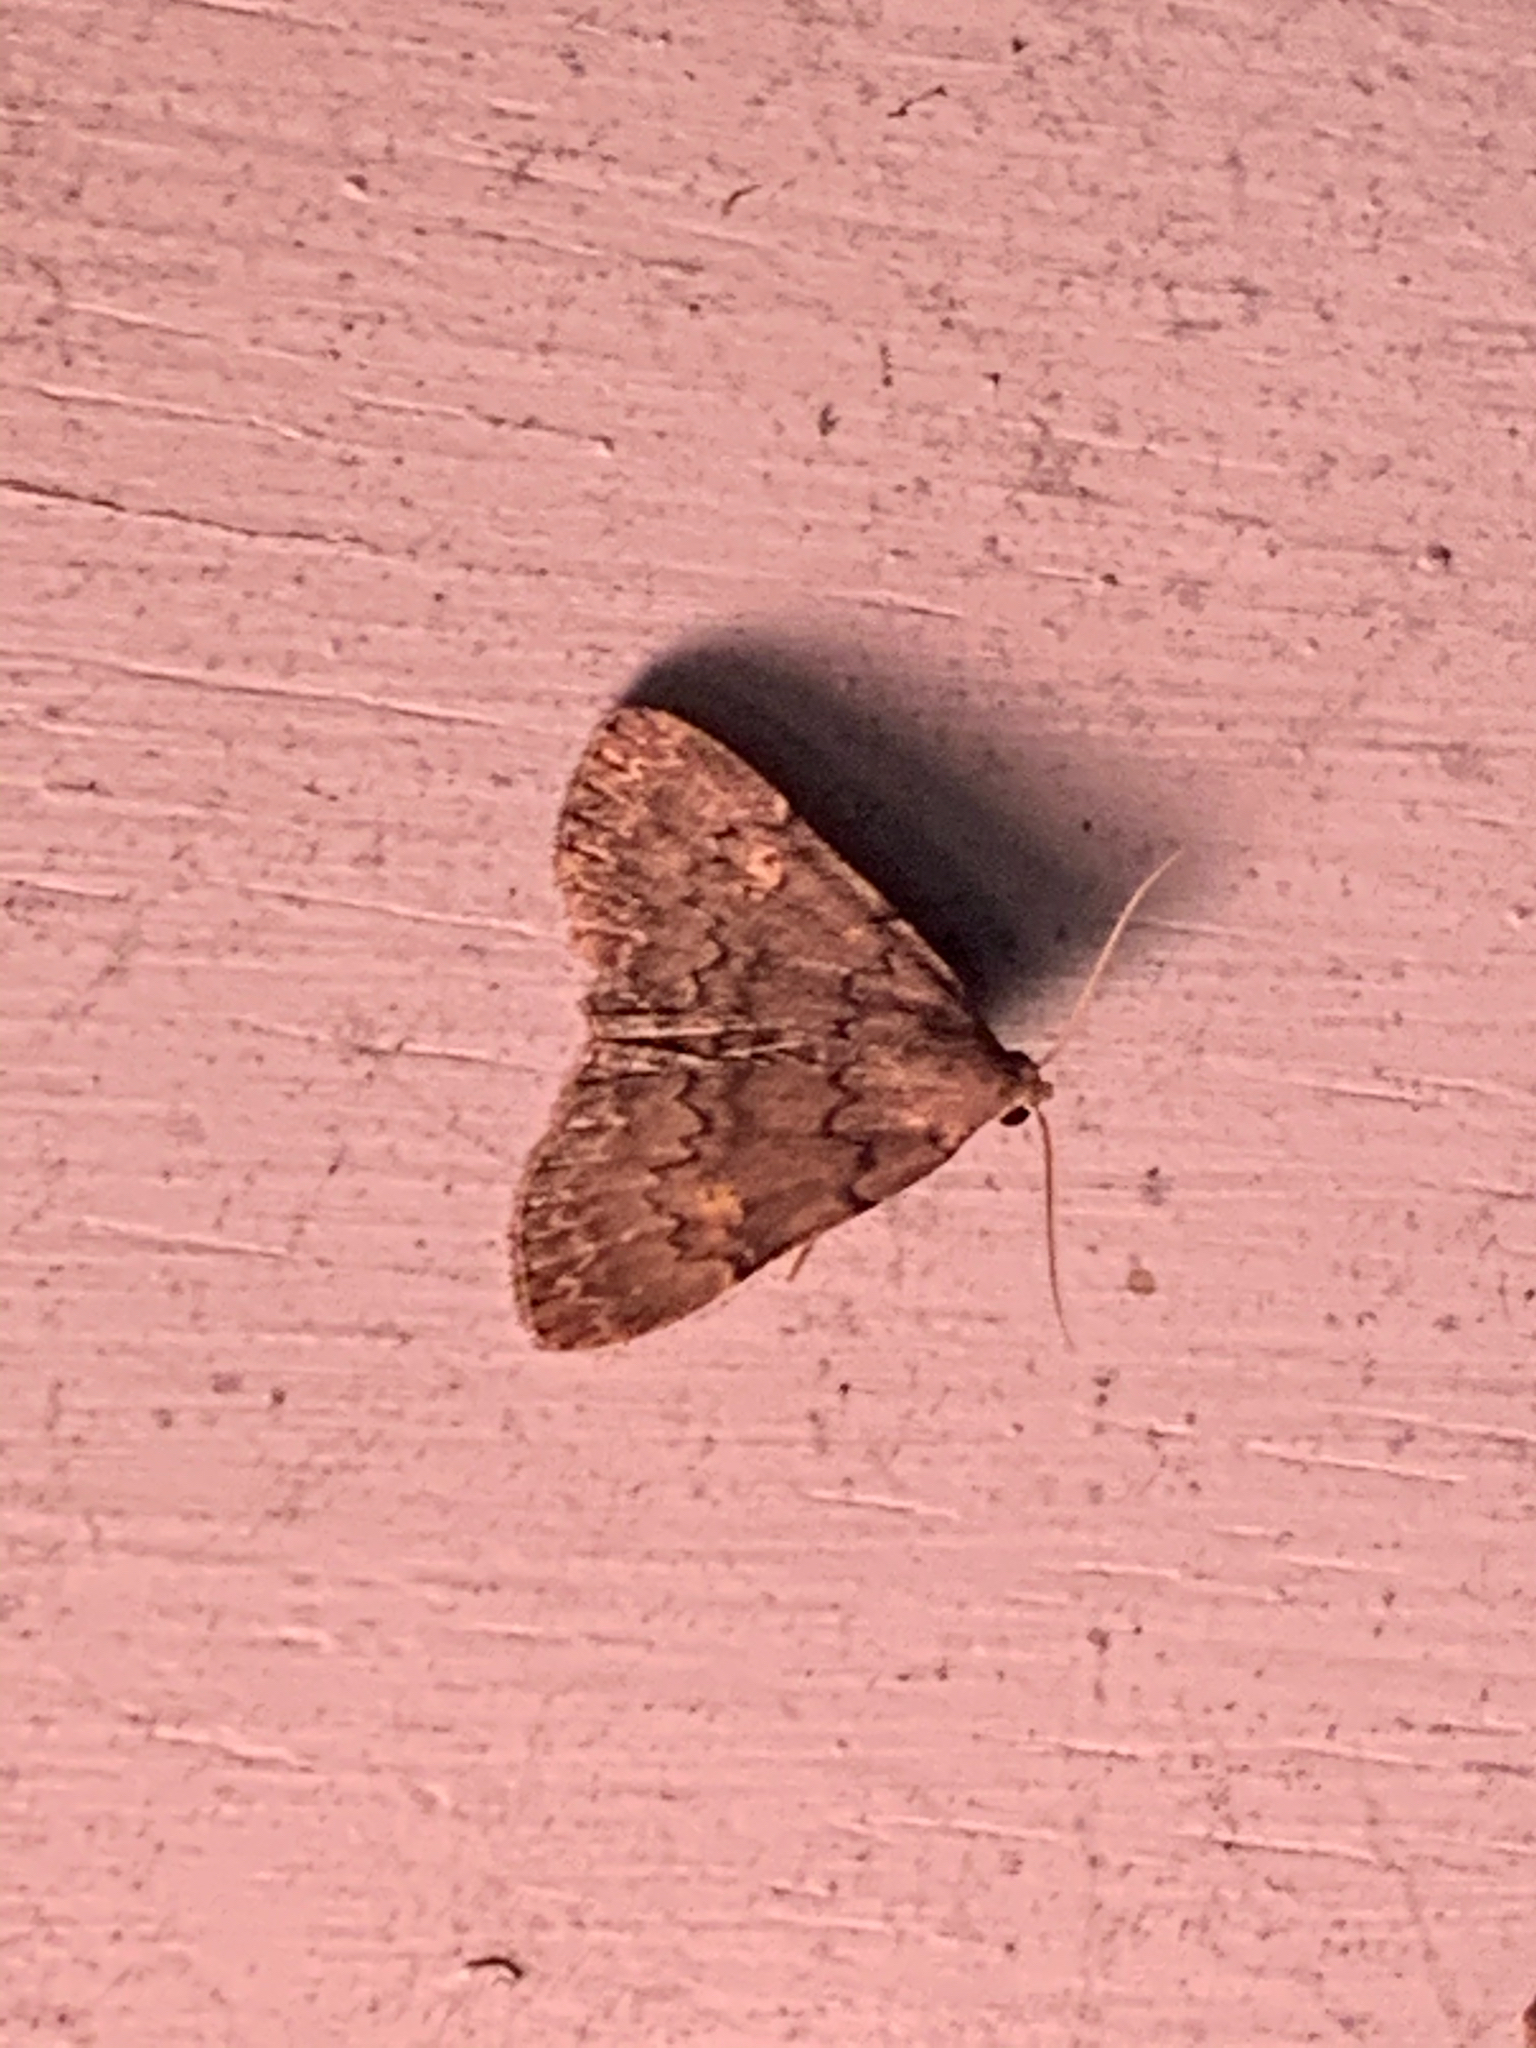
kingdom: Animalia
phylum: Arthropoda
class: Insecta
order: Lepidoptera
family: Erebidae
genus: Idia
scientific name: Idia aemula
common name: Common idia moth
